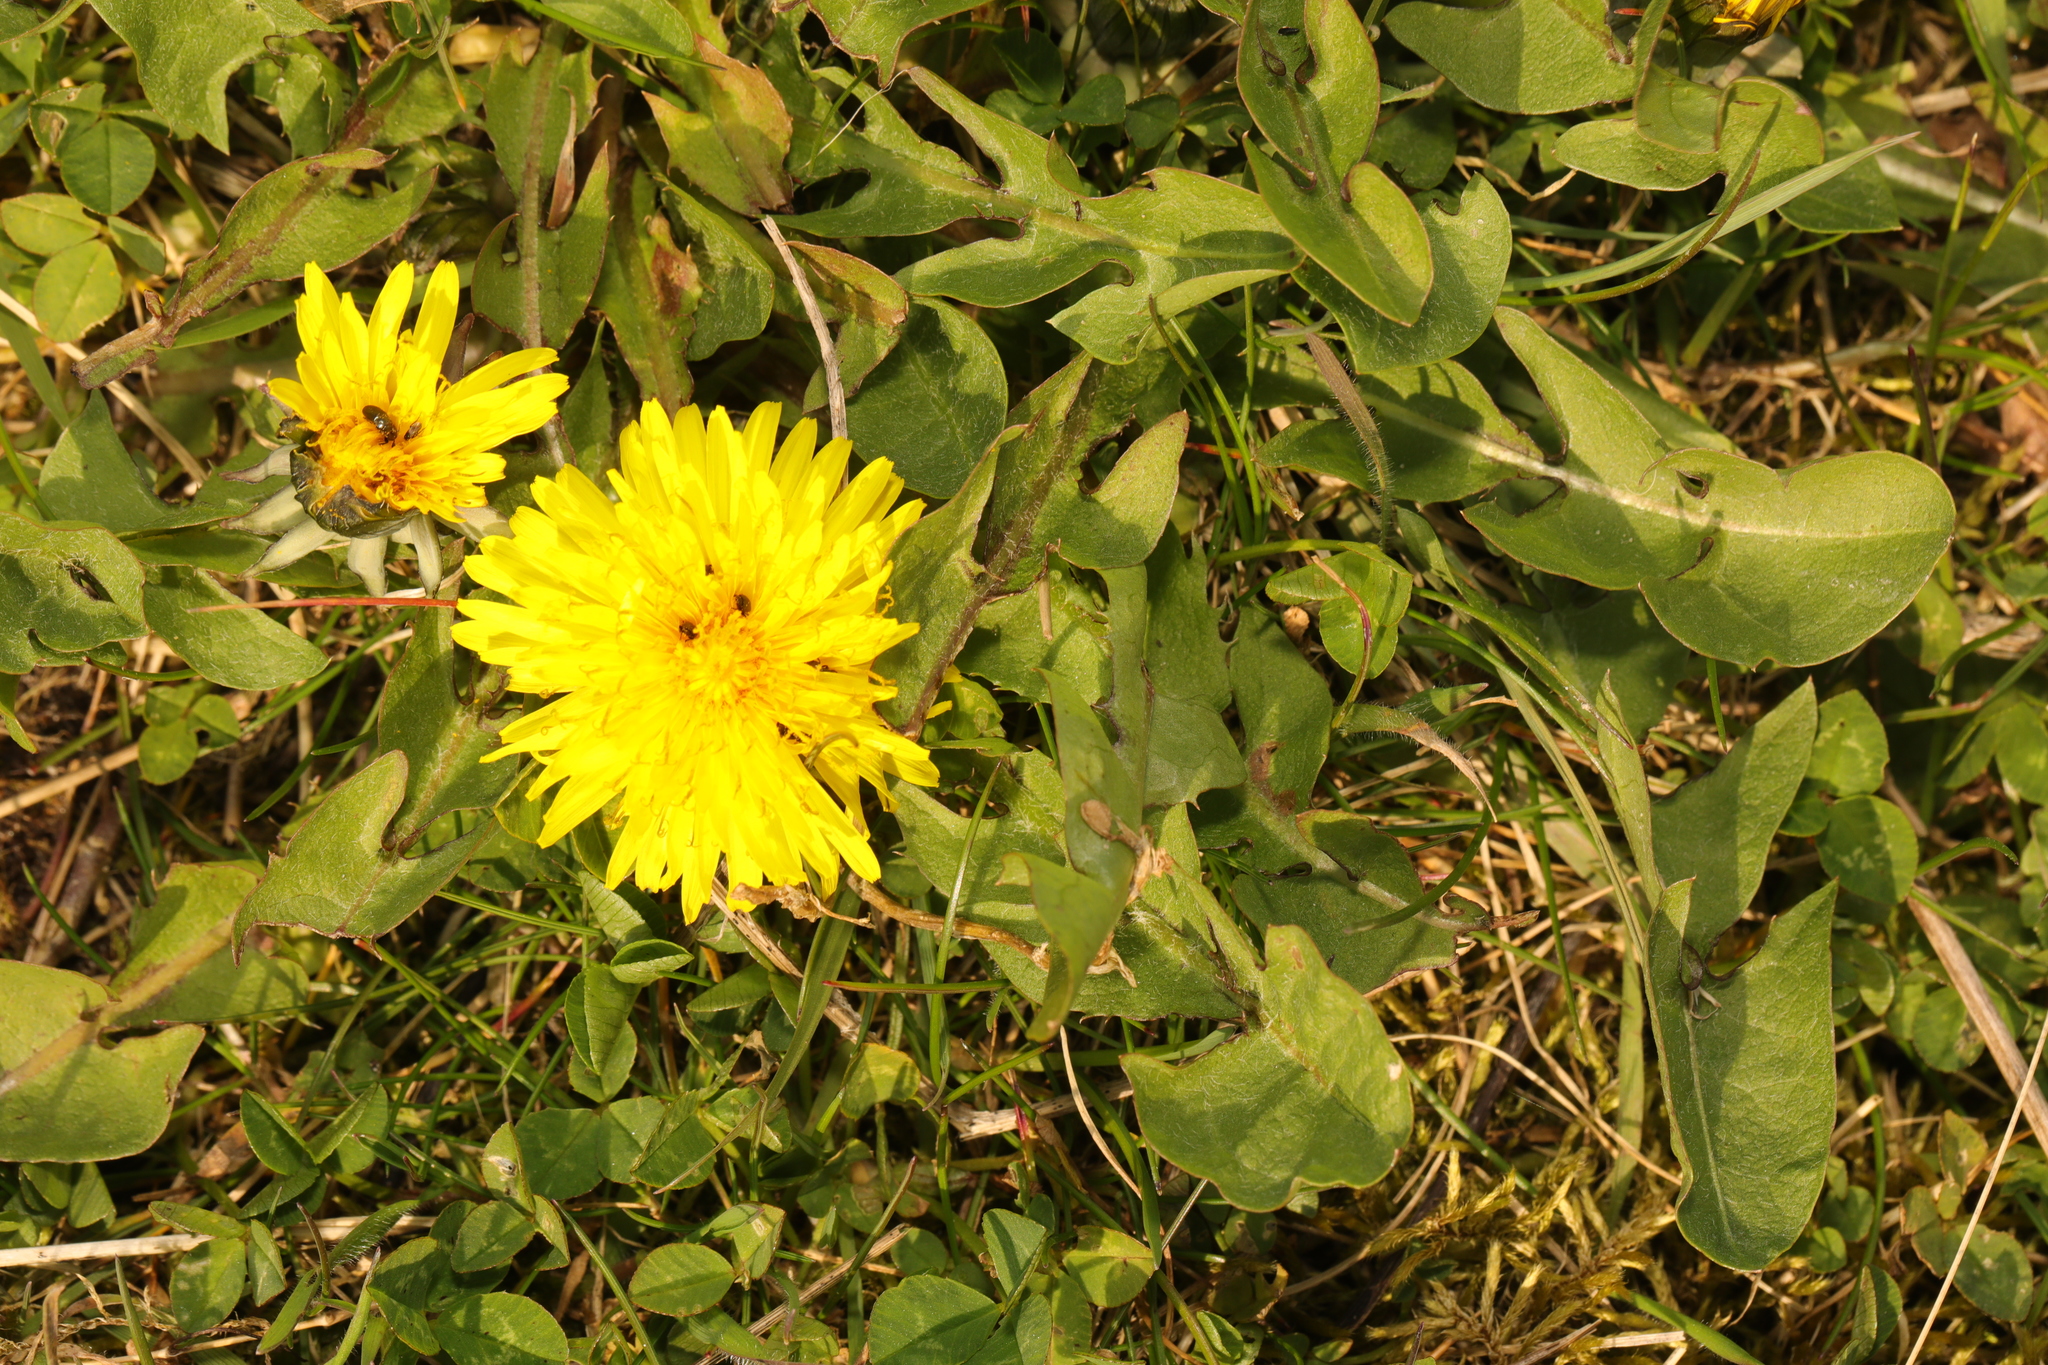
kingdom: Plantae
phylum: Tracheophyta
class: Magnoliopsida
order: Asterales
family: Asteraceae
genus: Taraxacum
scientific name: Taraxacum officinale
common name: Common dandelion
